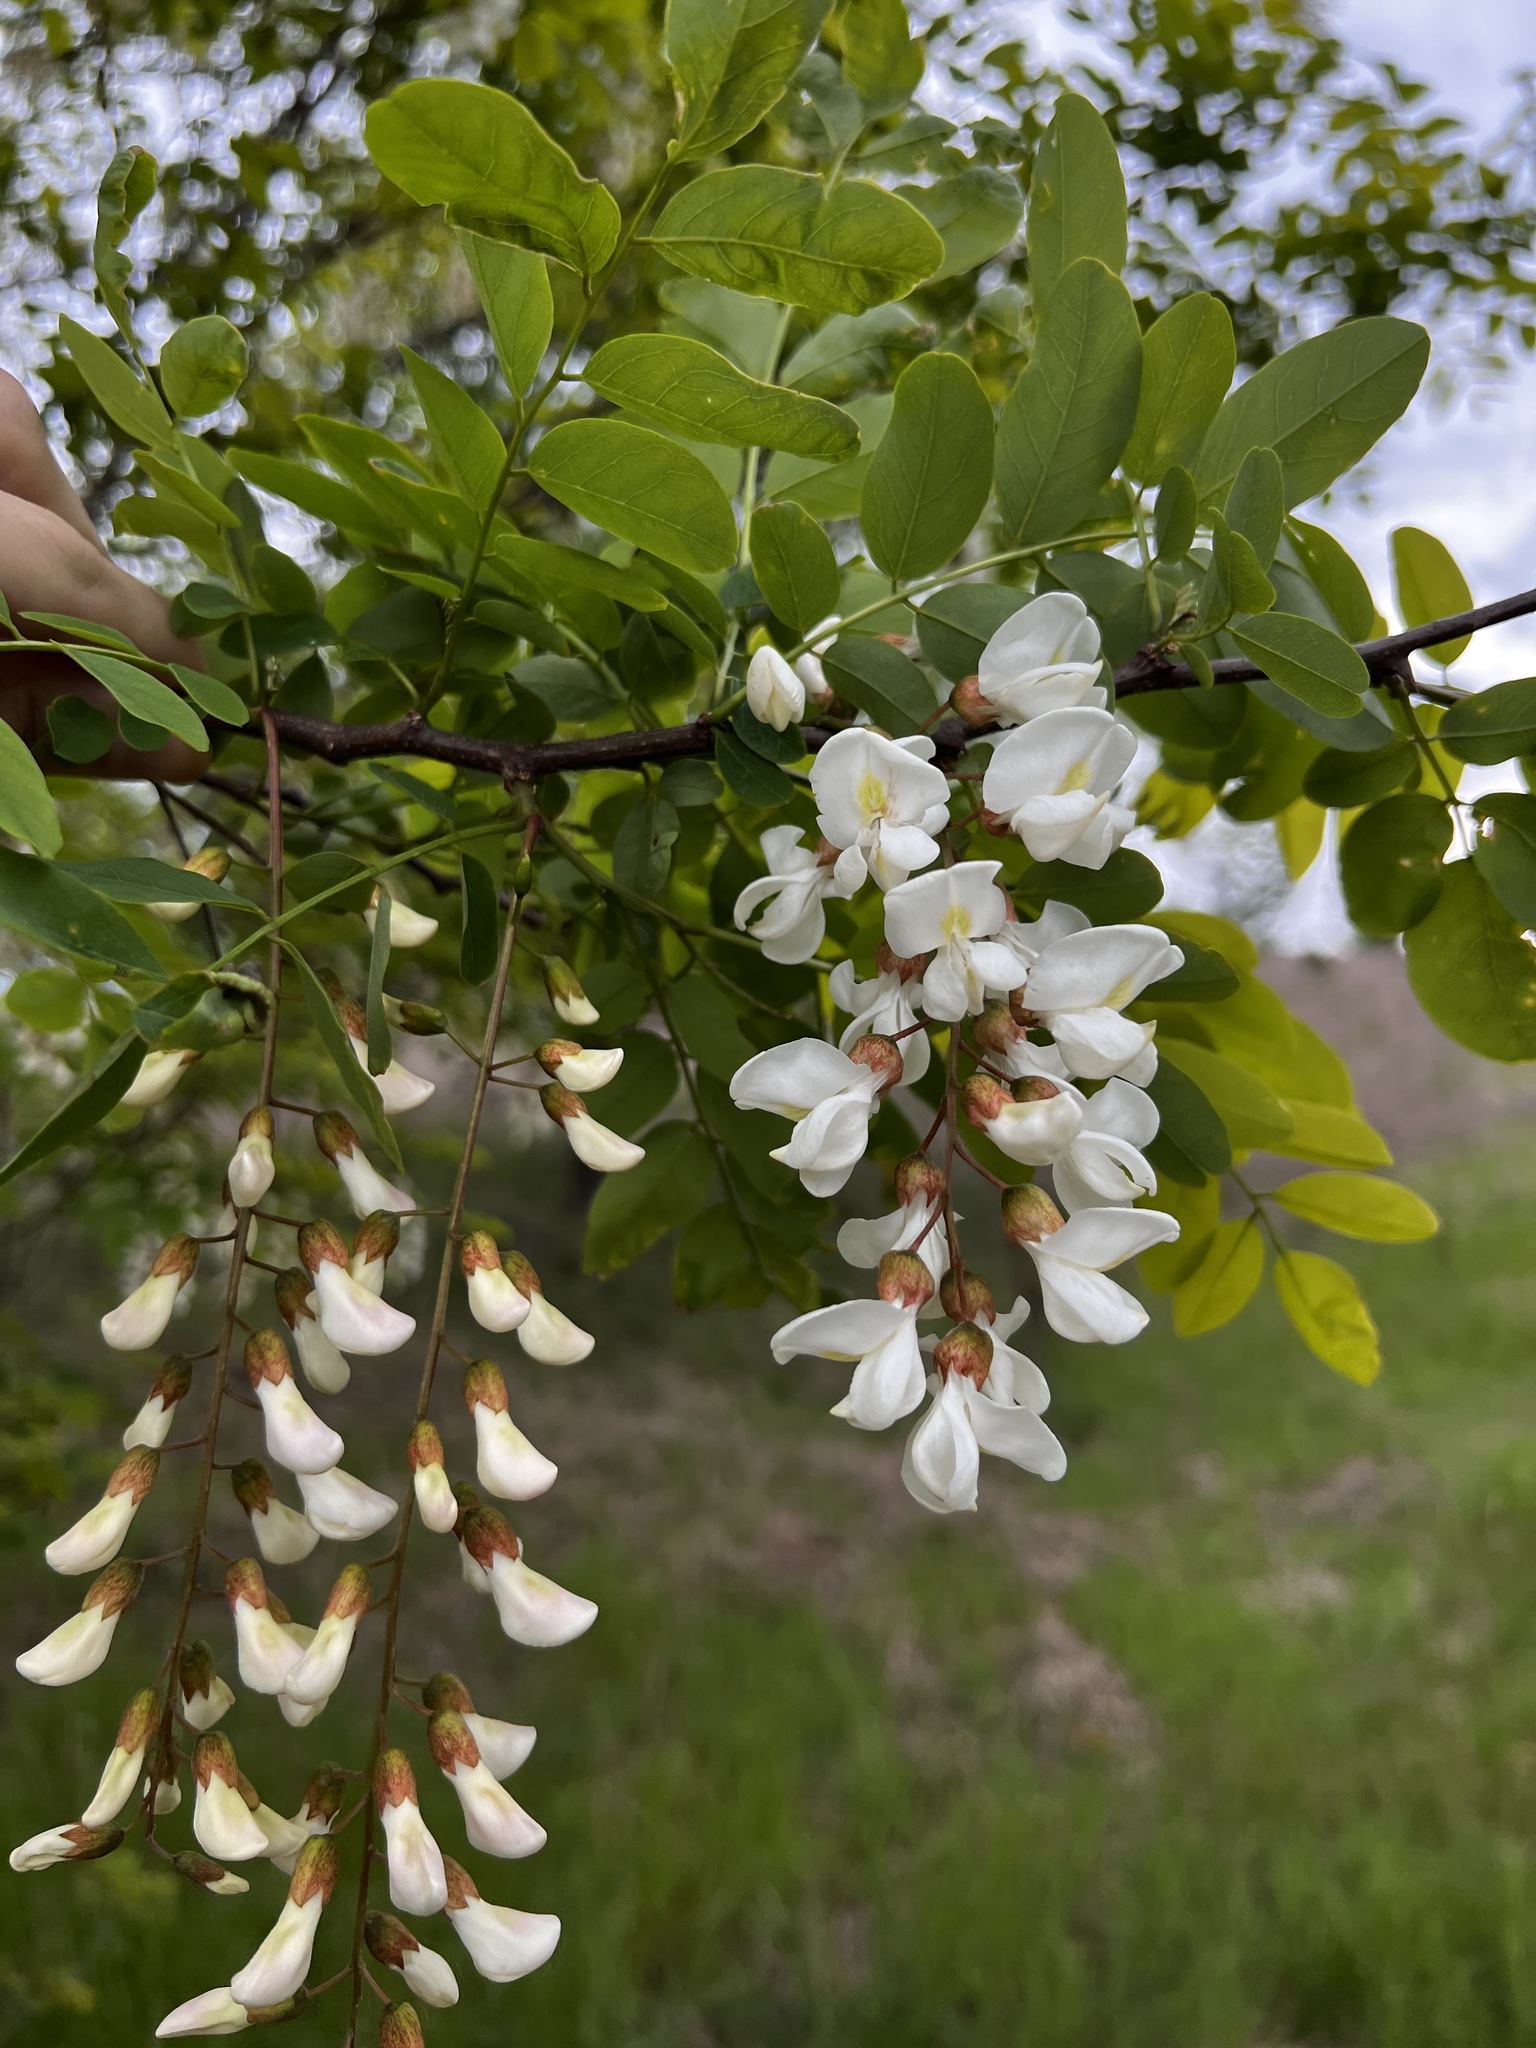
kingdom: Plantae
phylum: Tracheophyta
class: Magnoliopsida
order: Fabales
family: Fabaceae
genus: Robinia
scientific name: Robinia pseudoacacia
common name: Black locust
